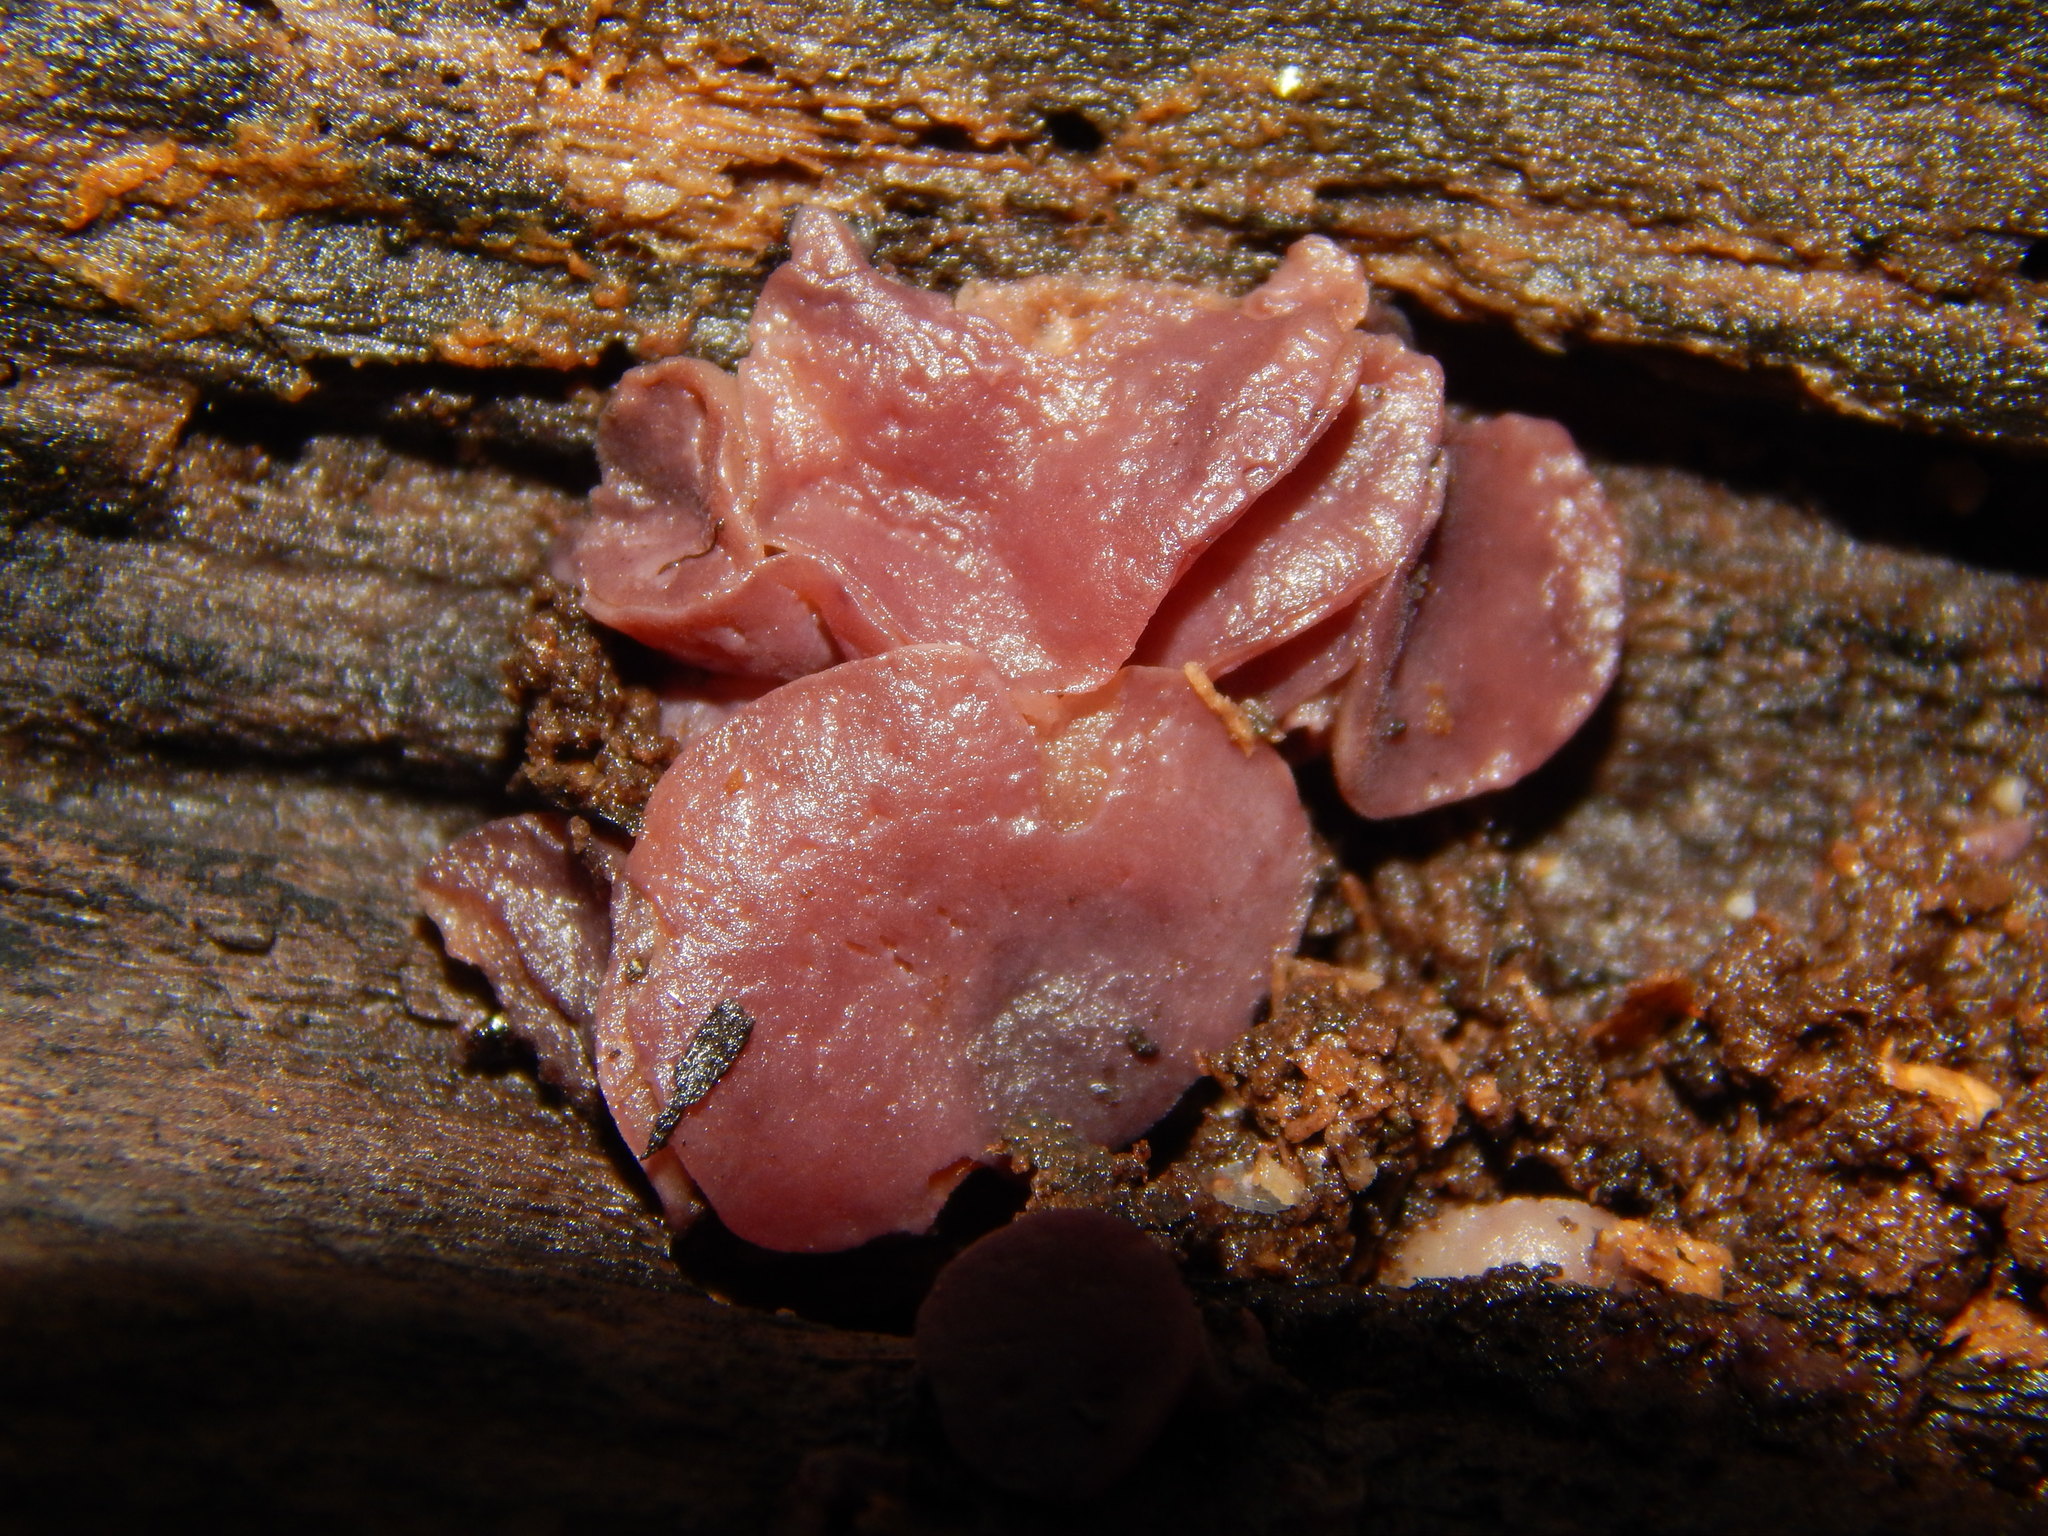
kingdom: Fungi
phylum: Ascomycota
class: Leotiomycetes
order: Helotiales
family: Gelatinodiscaceae
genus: Ascocoryne
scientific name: Ascocoryne sarcoides
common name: Purple jellydisc
